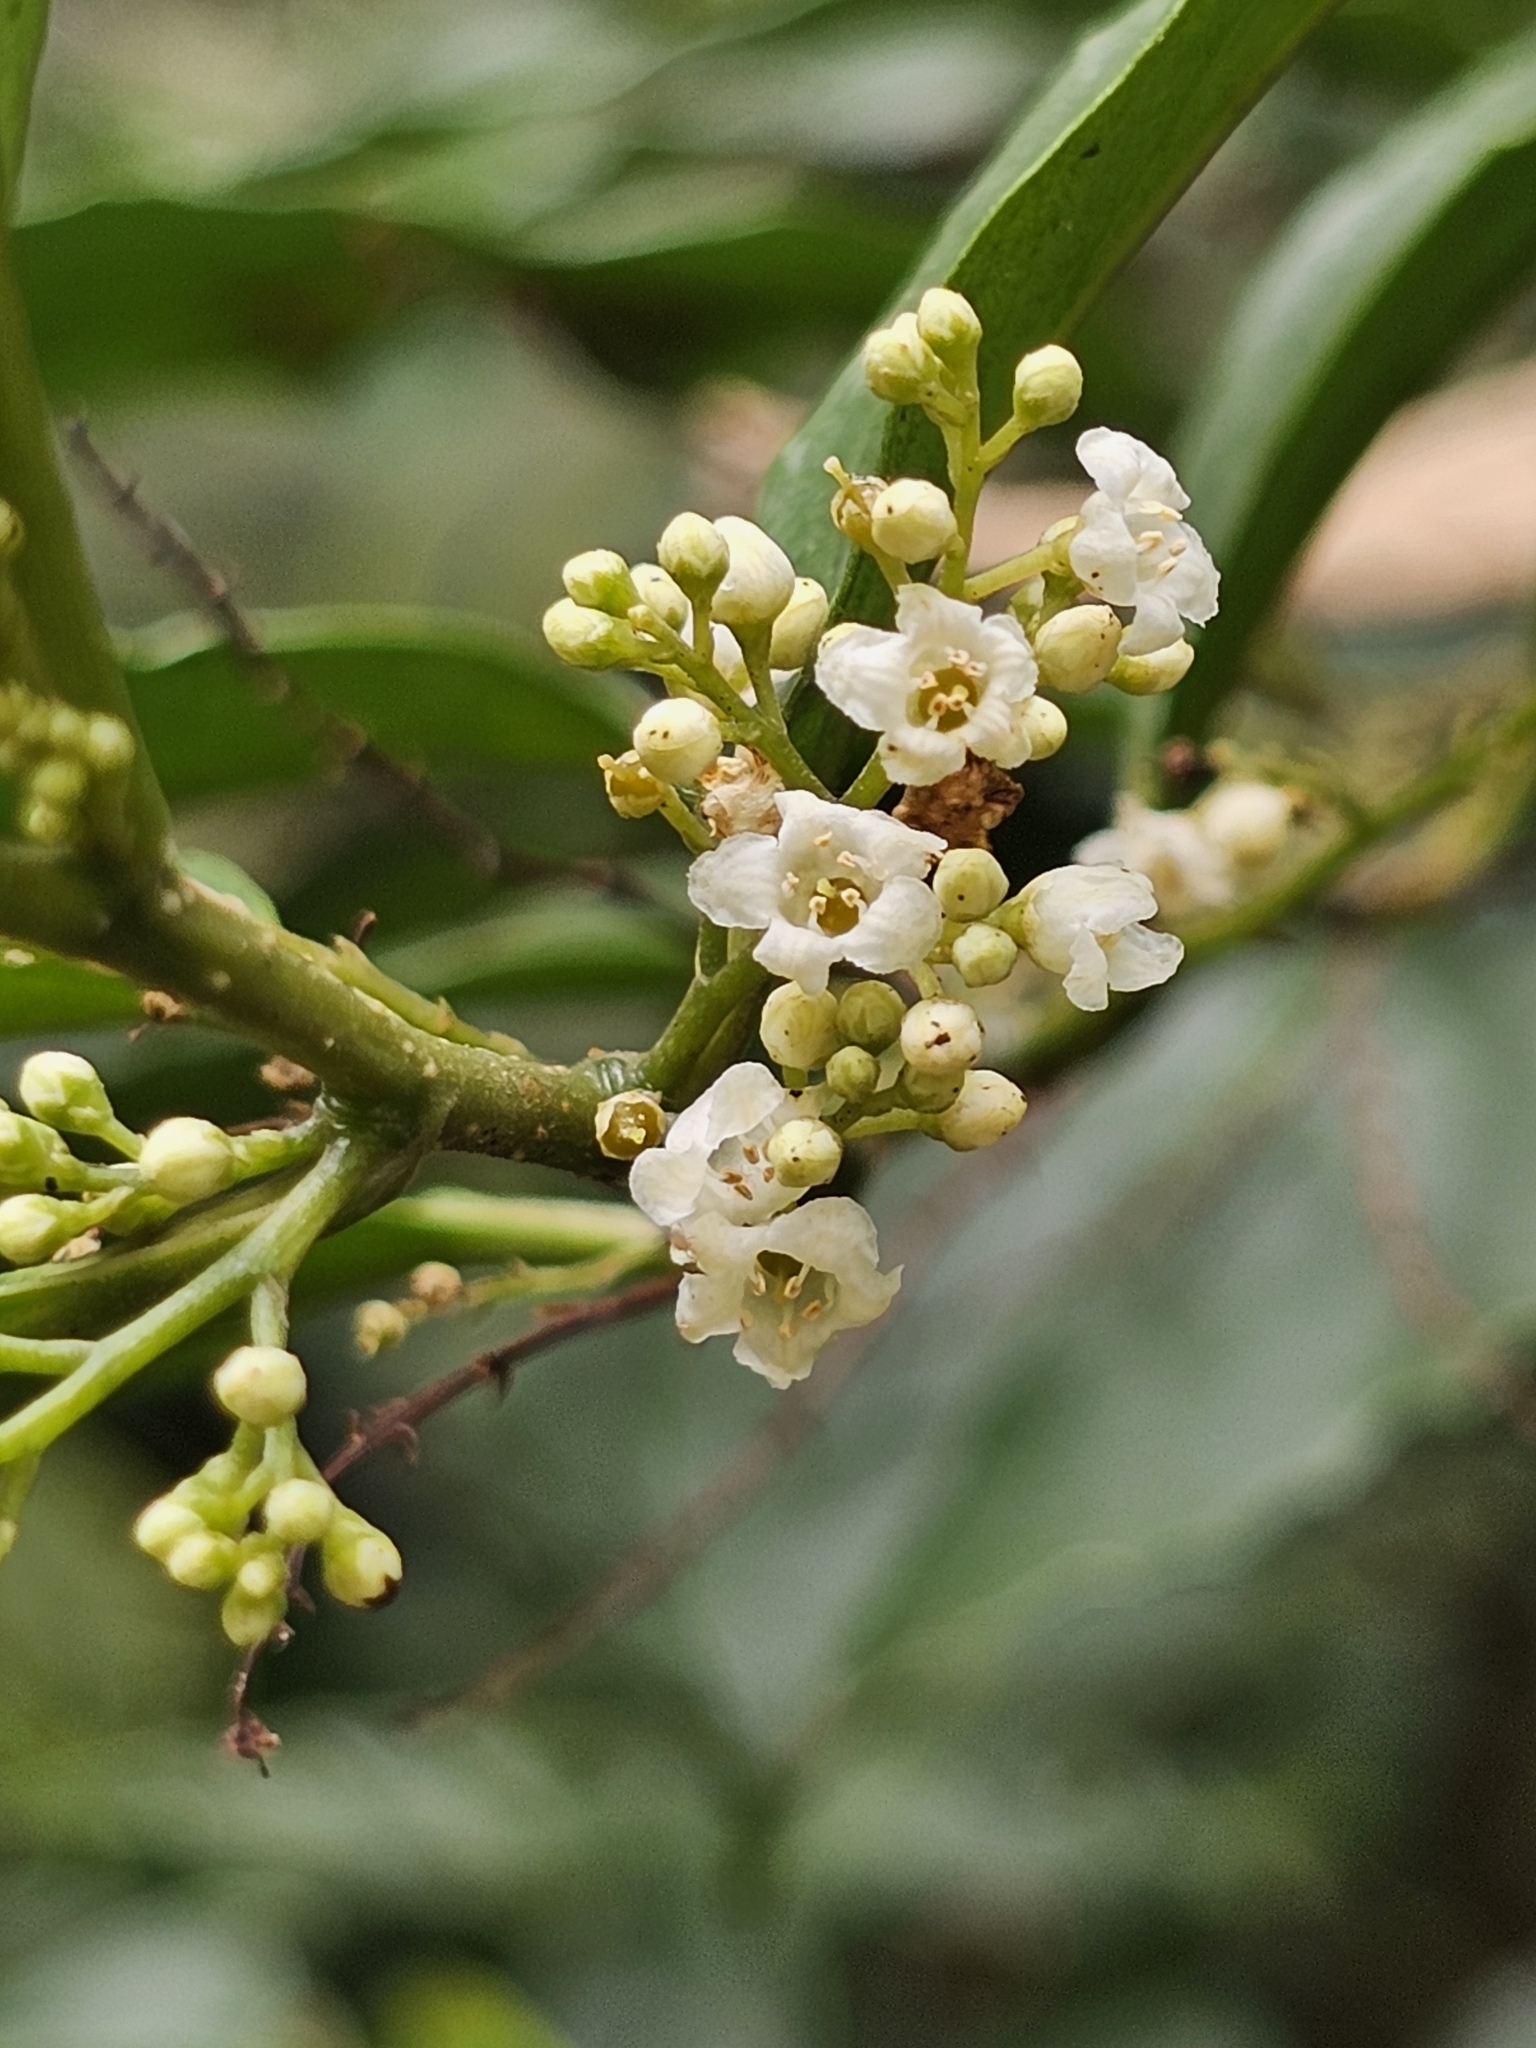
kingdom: Plantae
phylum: Tracheophyta
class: Magnoliopsida
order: Ericales
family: Primulaceae
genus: Maesa
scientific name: Maesa perlaria
